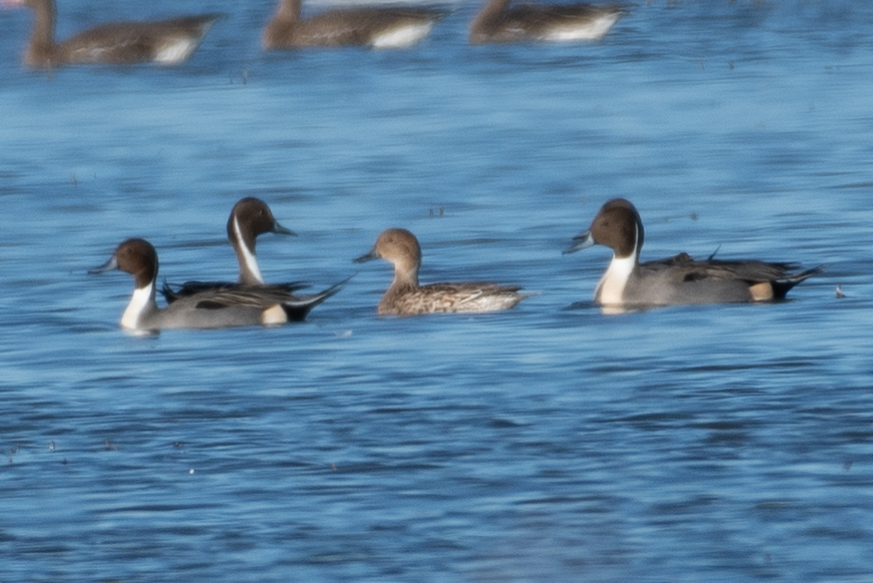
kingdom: Animalia
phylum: Chordata
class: Aves
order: Anseriformes
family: Anatidae
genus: Anas
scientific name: Anas acuta
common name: Northern pintail
